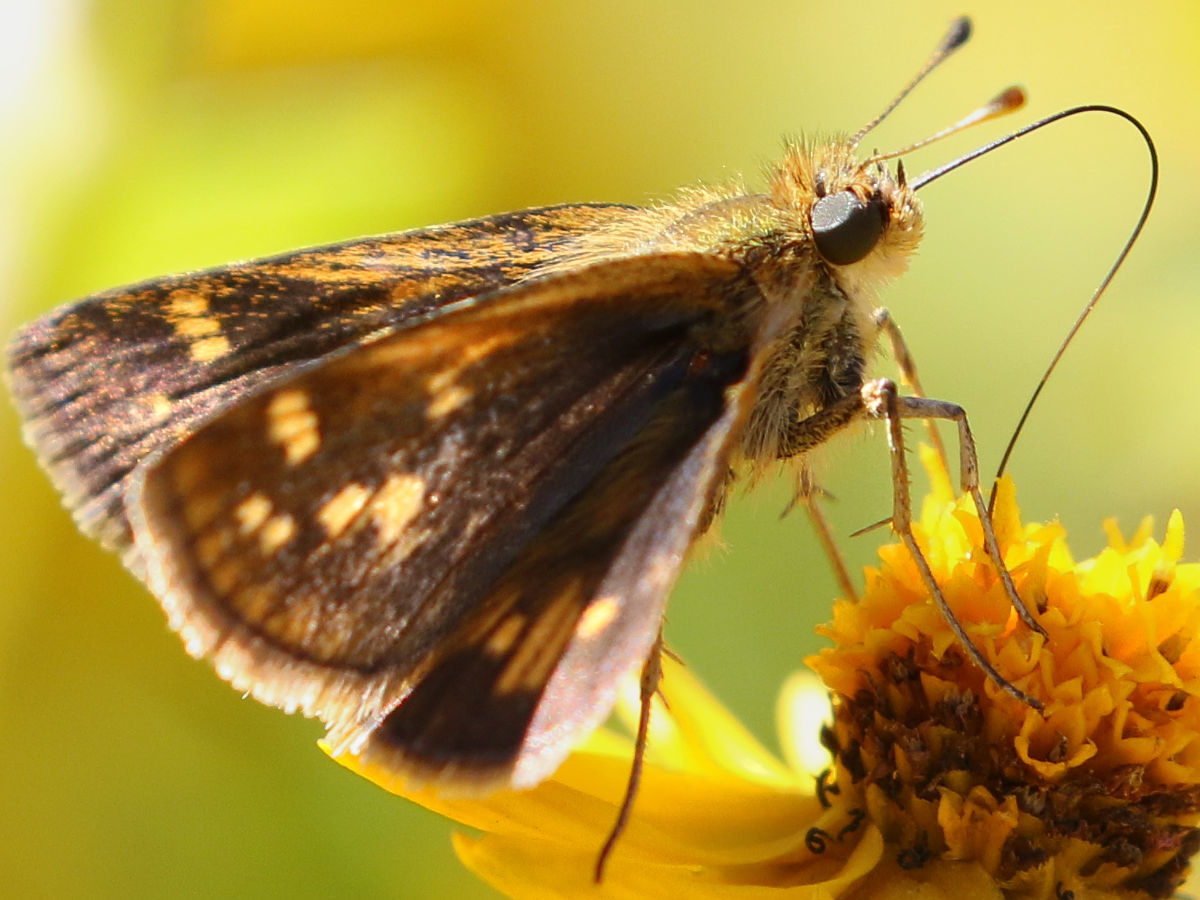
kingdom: Animalia
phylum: Arthropoda
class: Insecta
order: Lepidoptera
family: Hesperiidae
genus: Polites
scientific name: Polites coras
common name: Peck's skipper
